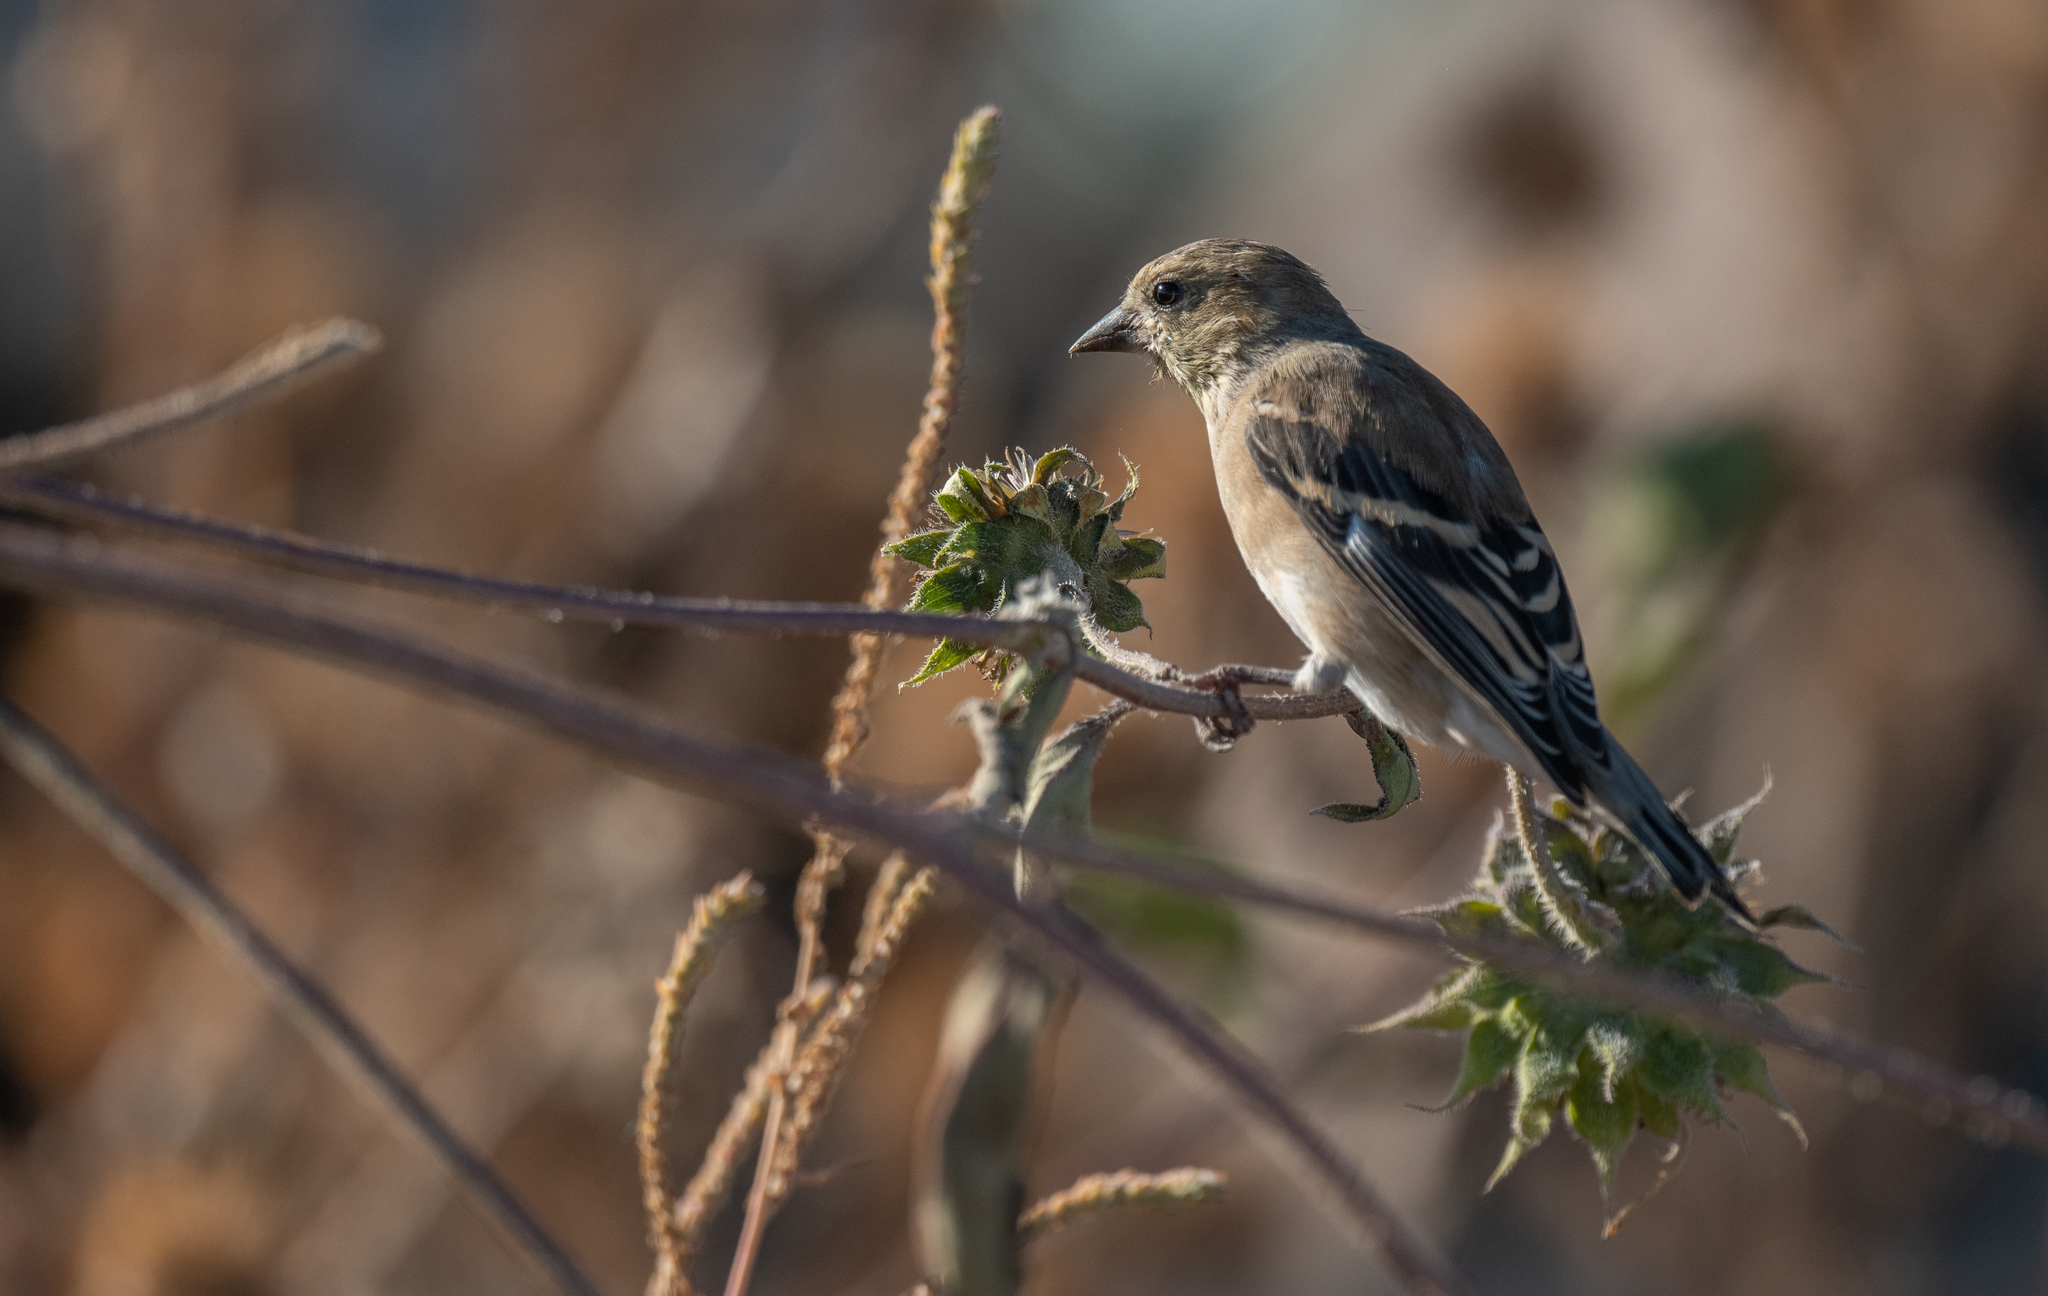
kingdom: Animalia
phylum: Chordata
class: Aves
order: Passeriformes
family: Fringillidae
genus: Spinus
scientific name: Spinus tristis
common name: American goldfinch
